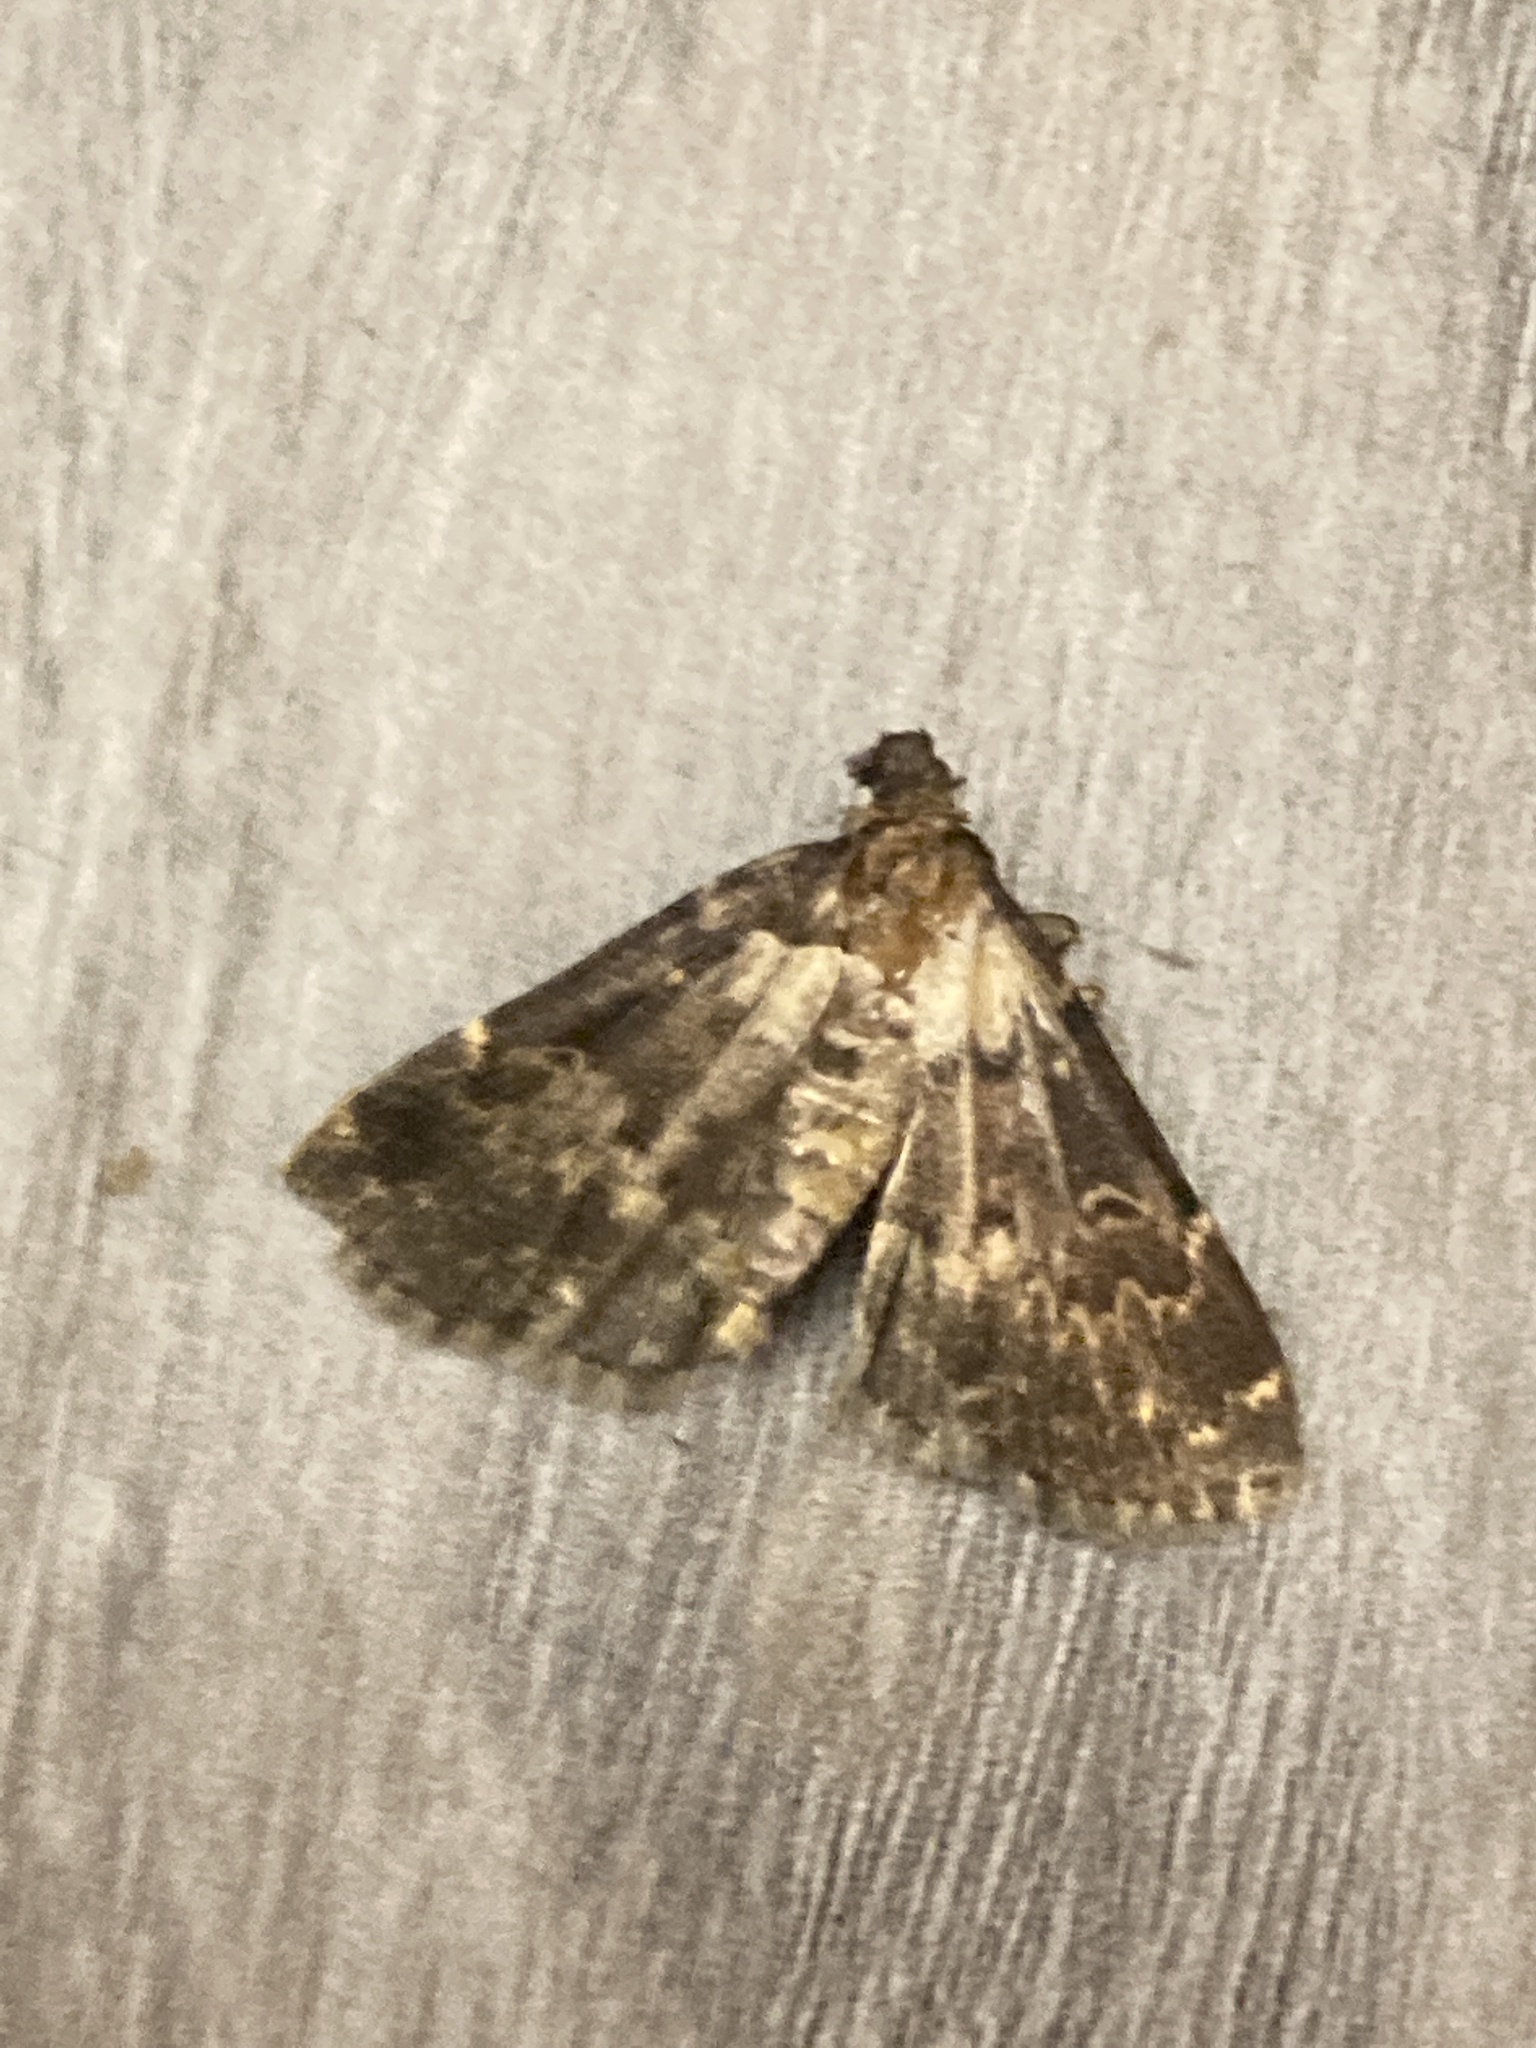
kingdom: Animalia
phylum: Arthropoda
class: Insecta
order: Lepidoptera
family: Erebidae
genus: Idia
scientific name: Idia lubricalis
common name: Twin-striped tabby
